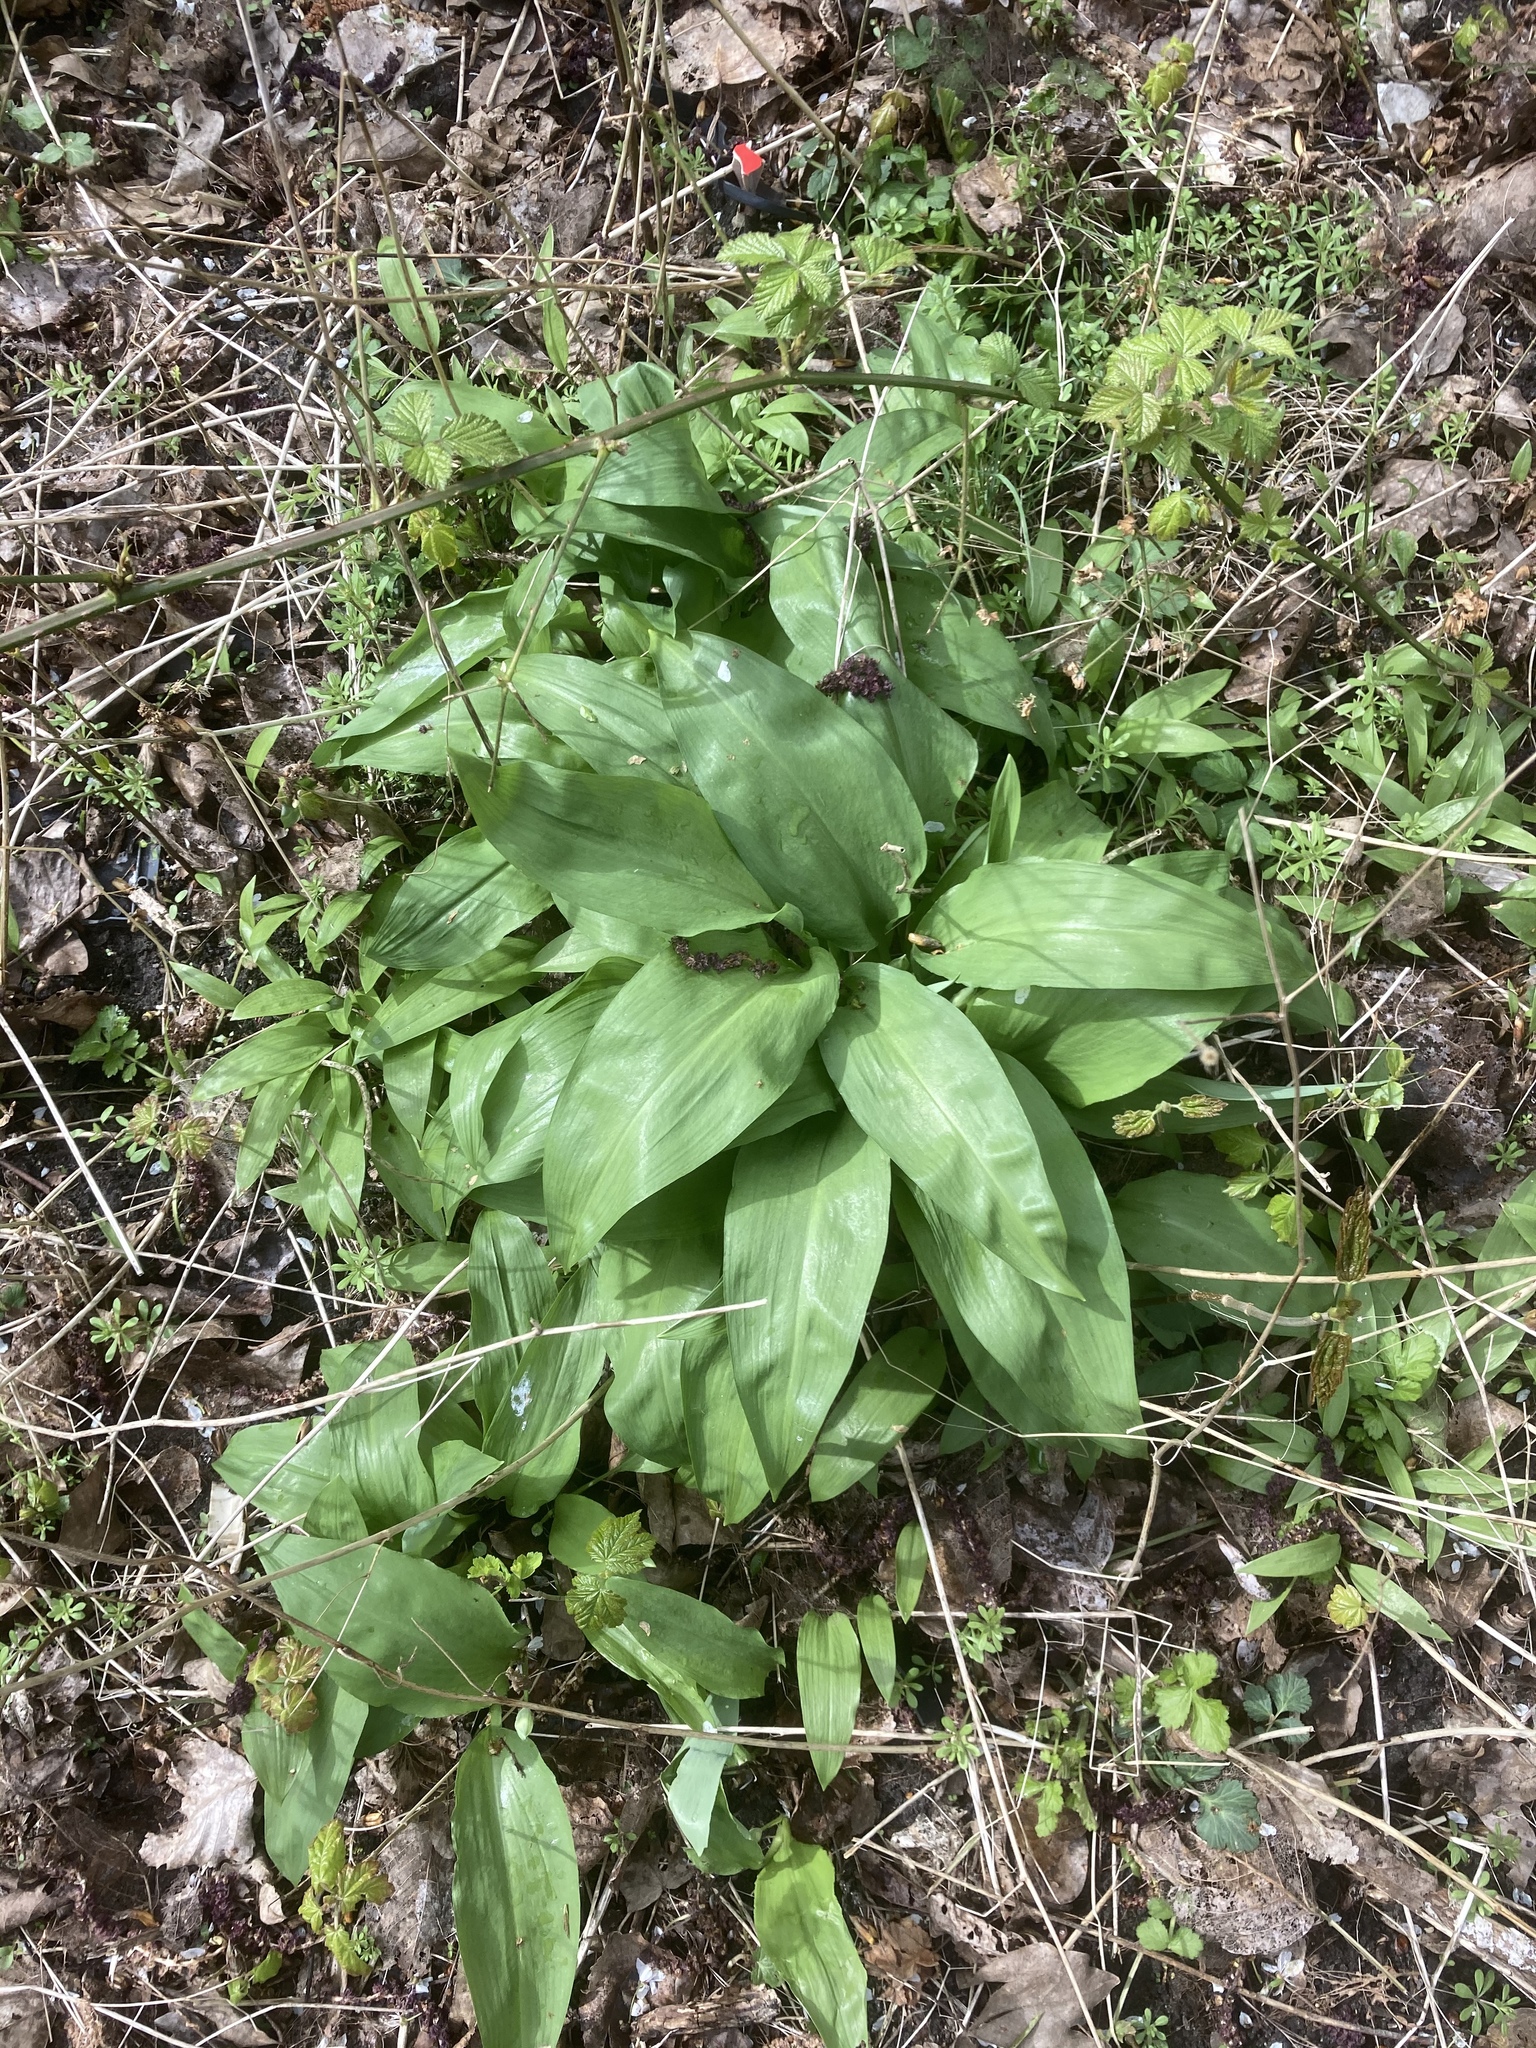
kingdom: Plantae
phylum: Tracheophyta
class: Liliopsida
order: Asparagales
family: Amaryllidaceae
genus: Allium
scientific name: Allium ursinum
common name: Ramsons
